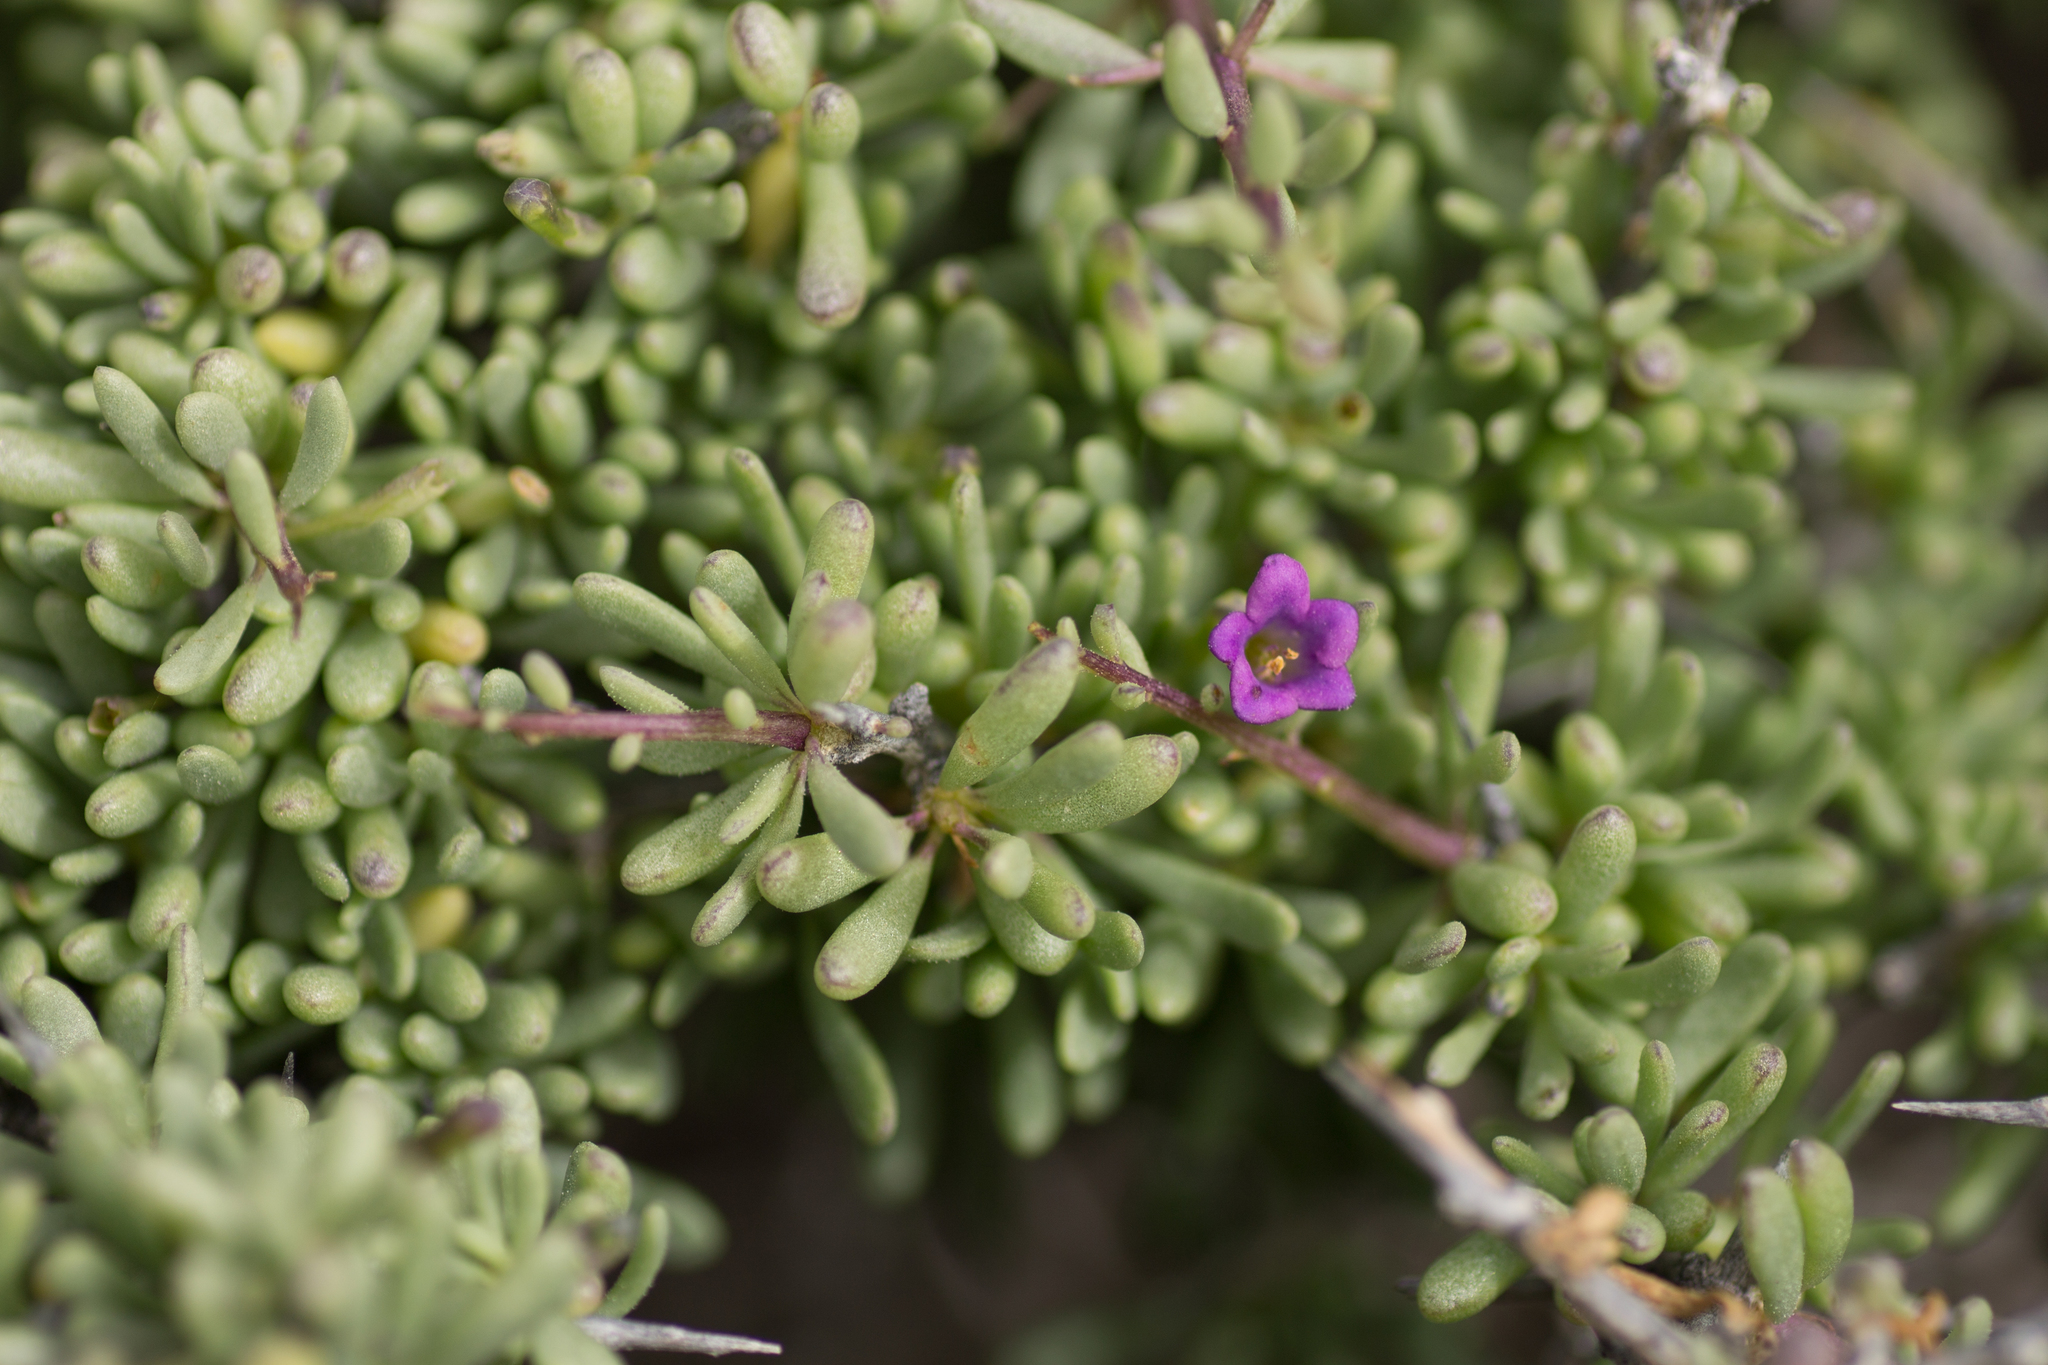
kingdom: Plantae
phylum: Tracheophyta
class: Magnoliopsida
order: Solanales
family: Solanaceae
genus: Lycium
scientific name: Lycium intricatum
